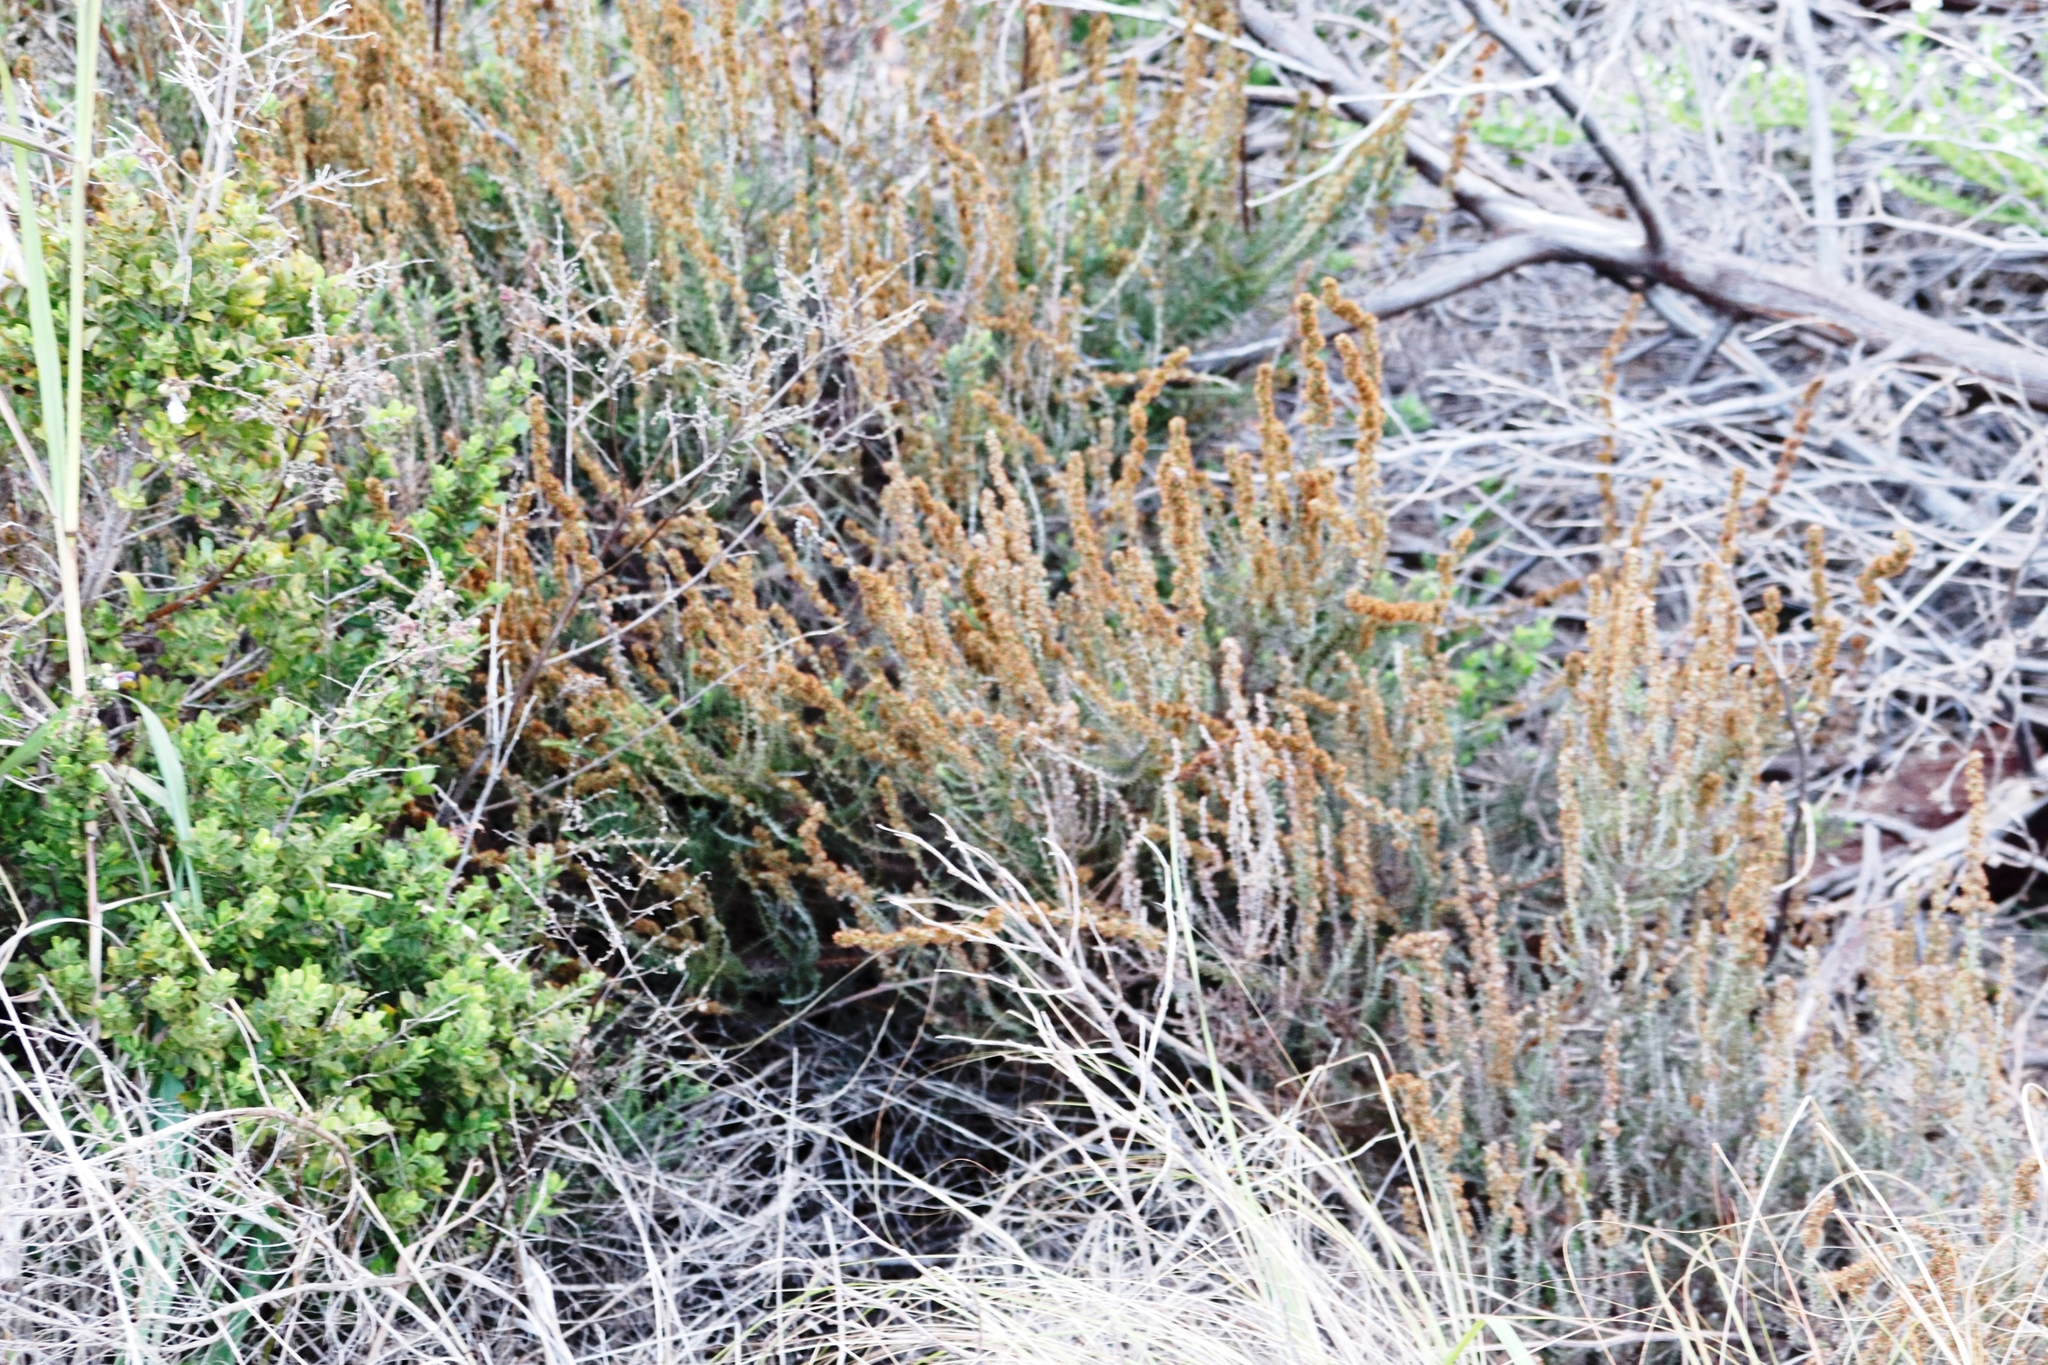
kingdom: Plantae
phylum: Tracheophyta
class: Magnoliopsida
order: Asterales
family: Asteraceae
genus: Seriphium
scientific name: Seriphium cinereum
